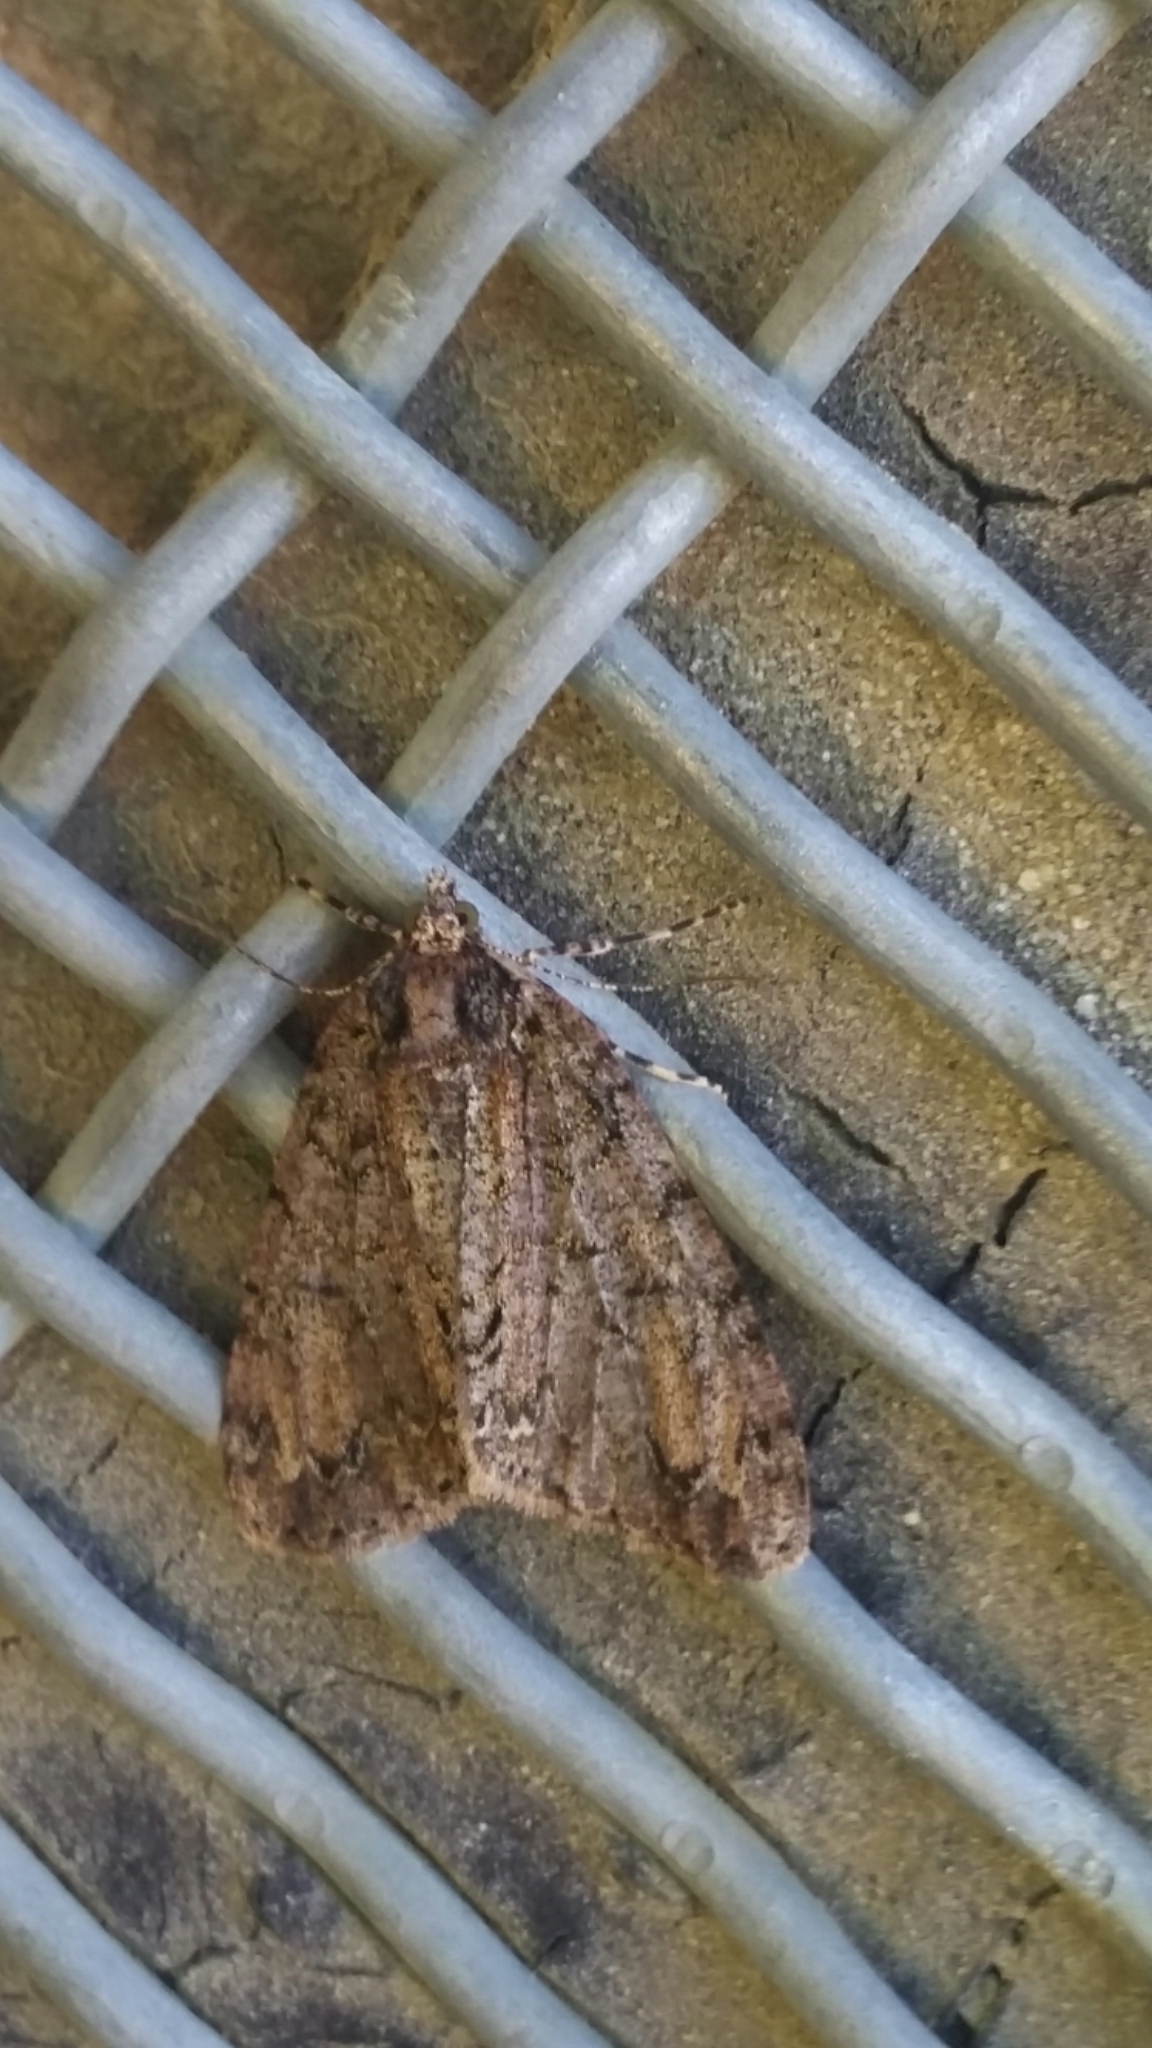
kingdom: Animalia
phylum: Arthropoda
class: Insecta
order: Lepidoptera
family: Geometridae
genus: Pseudocoremia
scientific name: Pseudocoremia suavis
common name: Common forest looper
